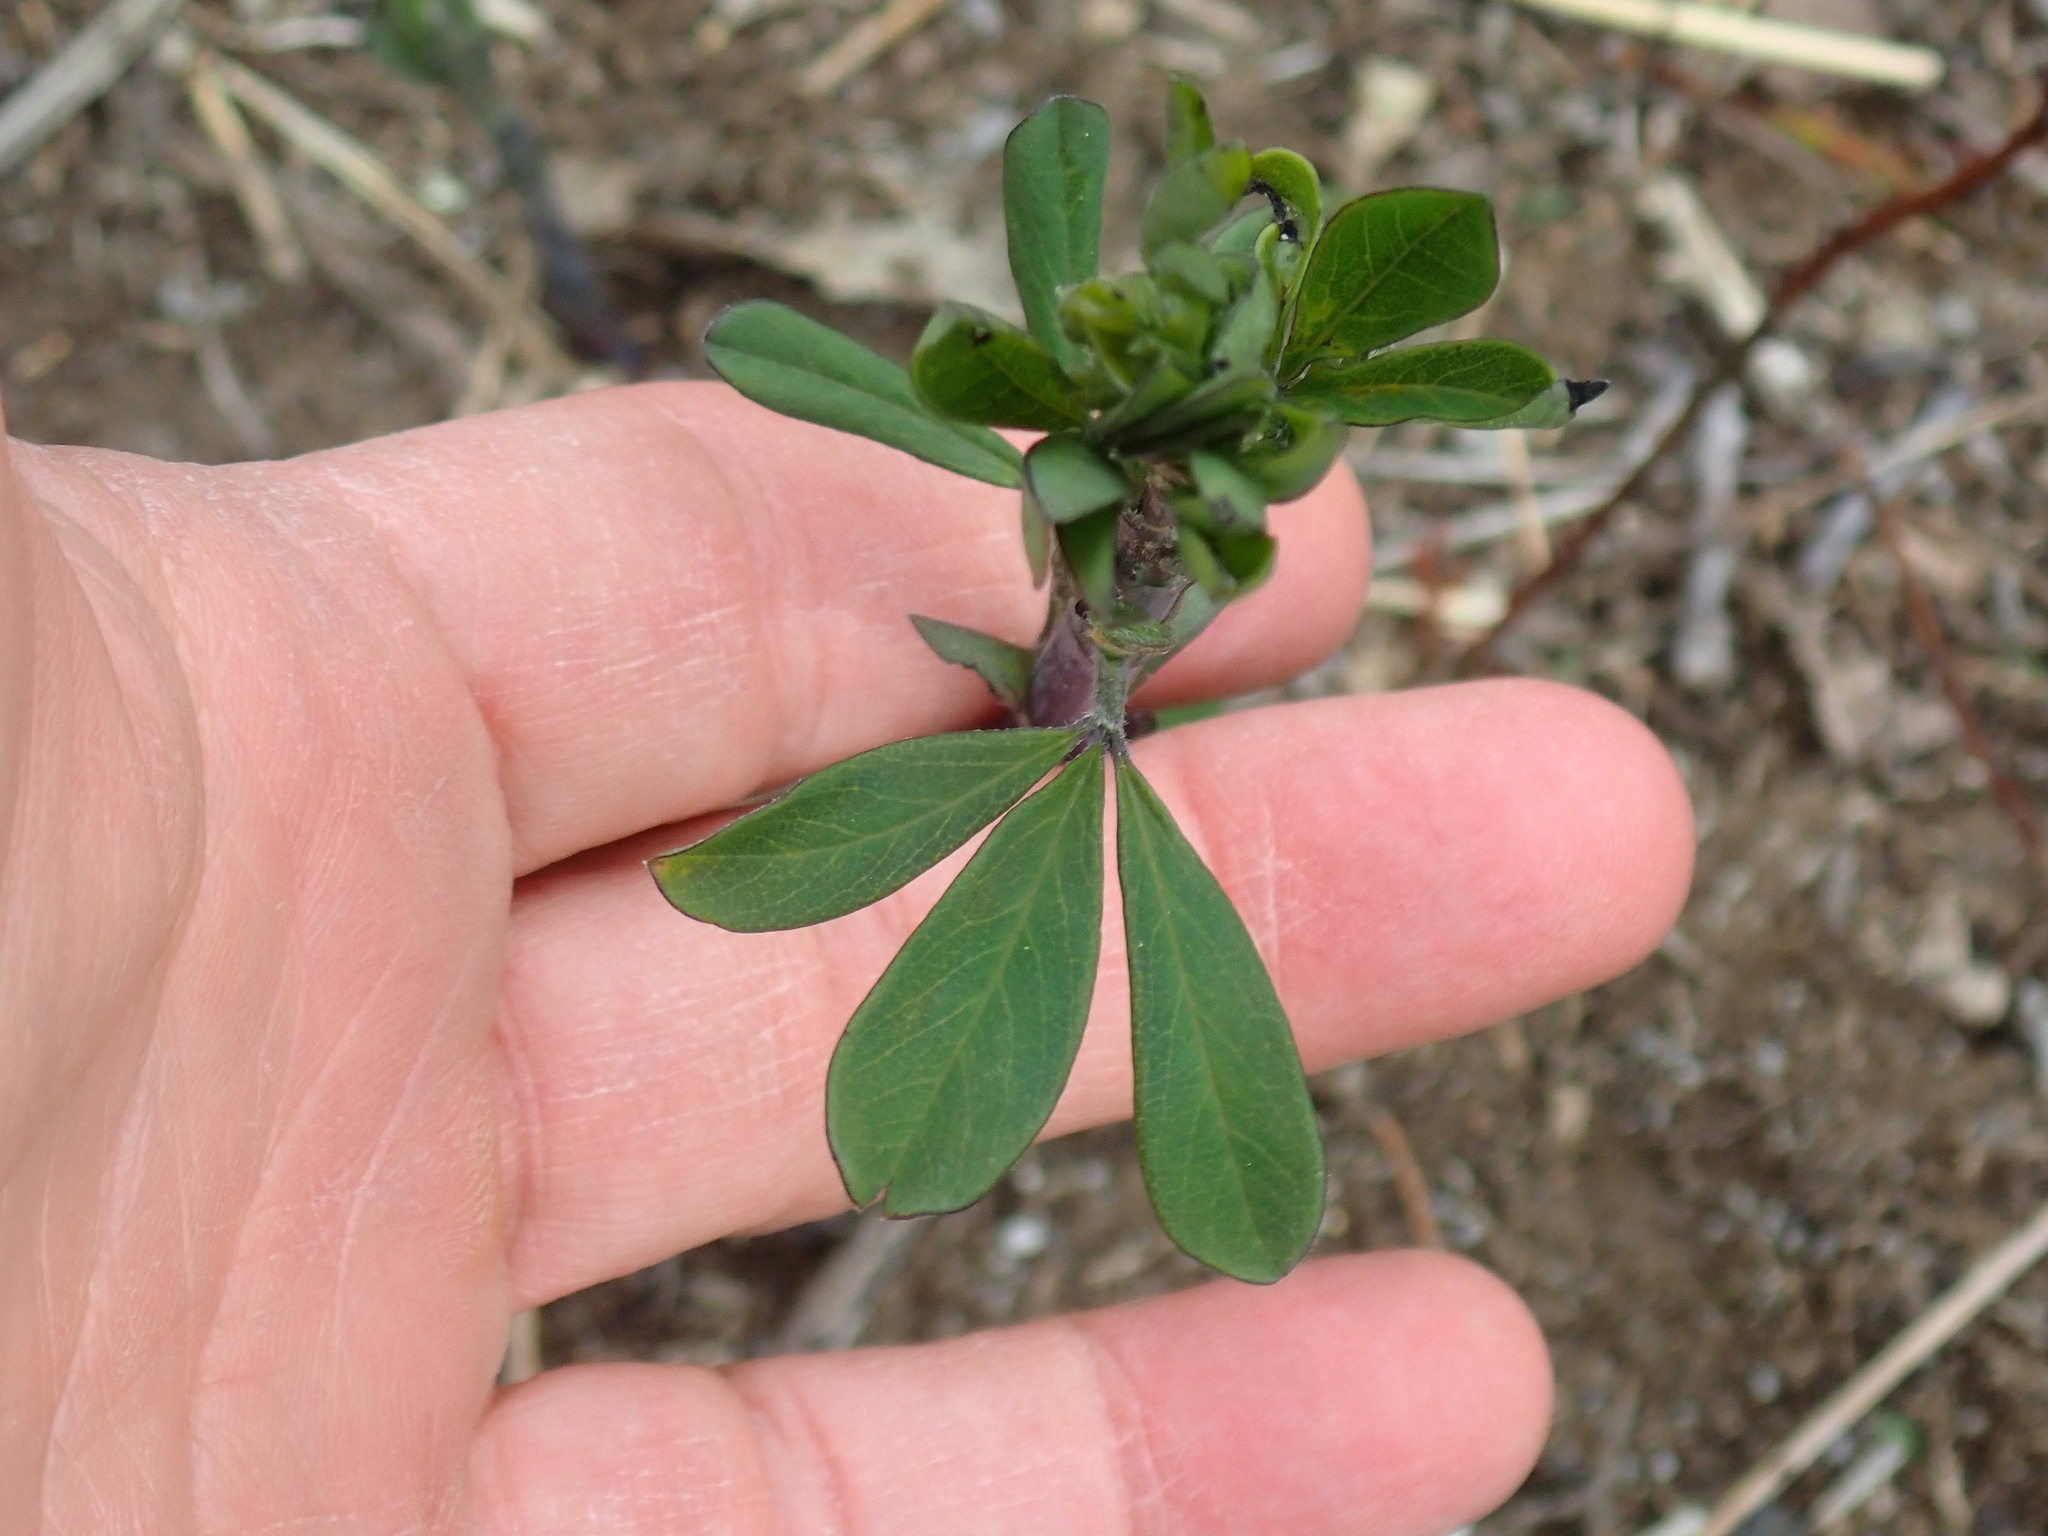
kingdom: Plantae
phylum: Tracheophyta
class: Magnoliopsida
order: Fabales
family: Fabaceae
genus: Baptisia
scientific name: Baptisia tinctoria
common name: Wild indigo
